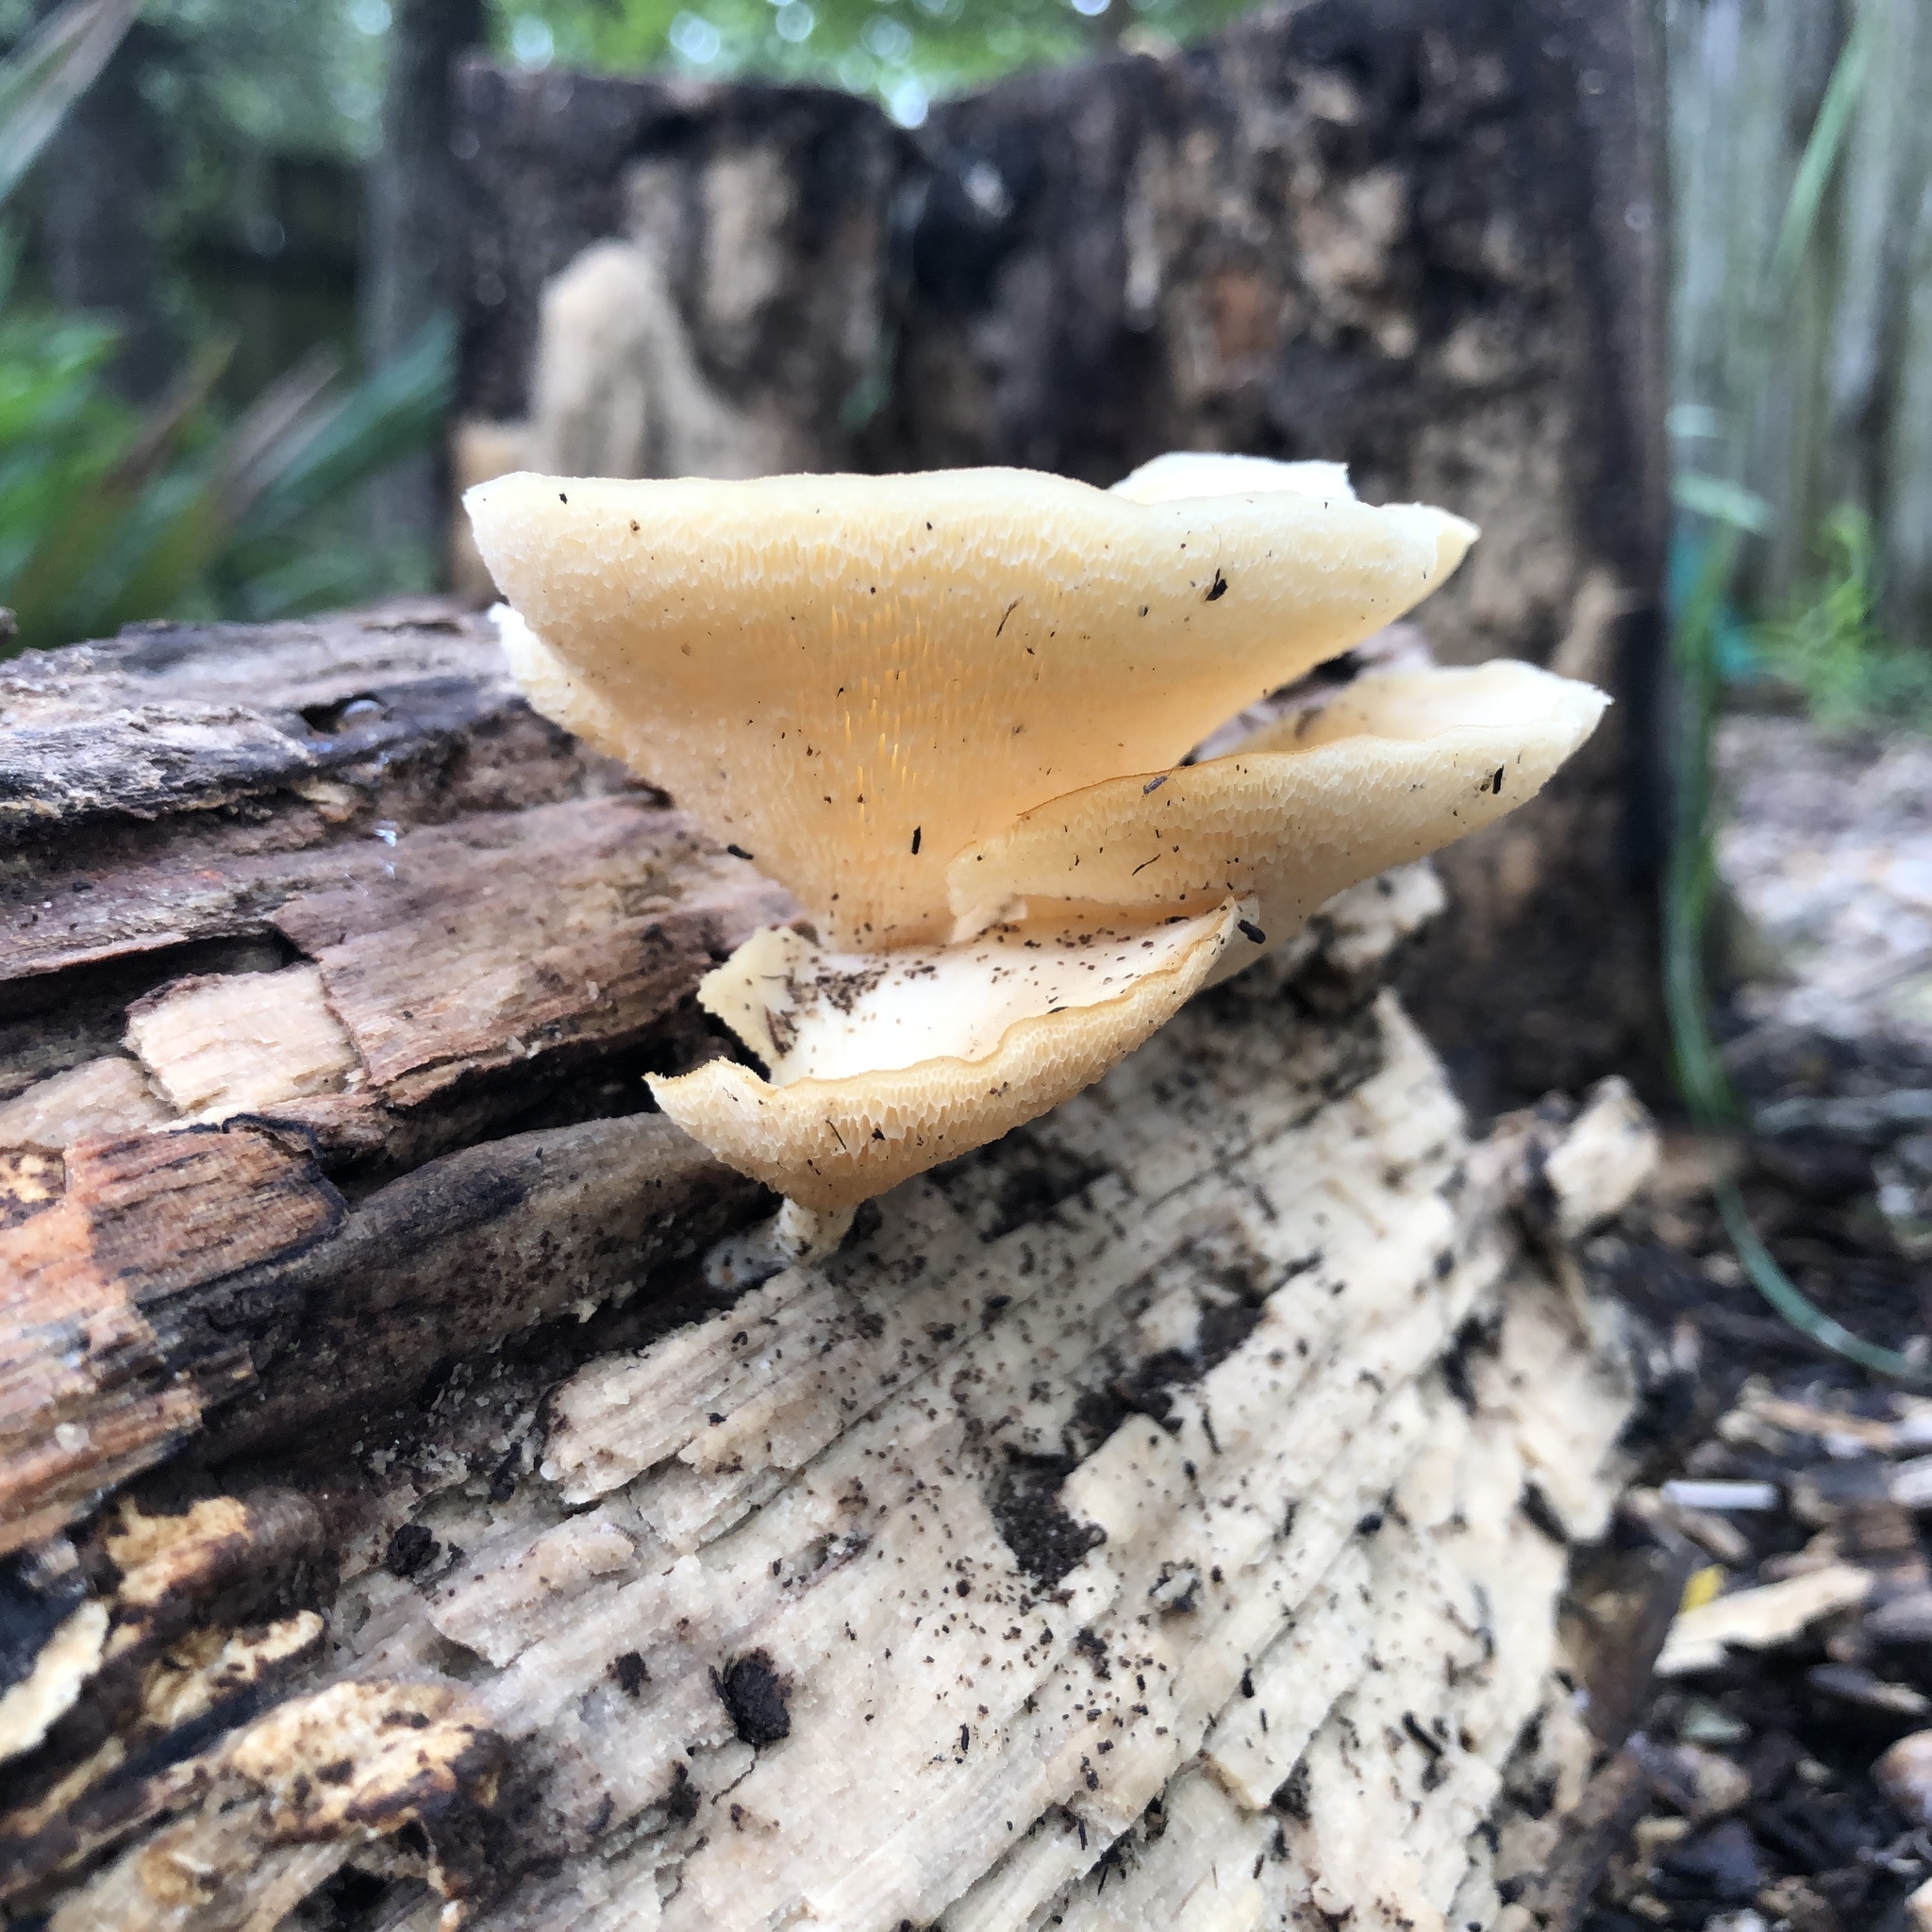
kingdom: Fungi
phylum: Basidiomycota
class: Agaricomycetes
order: Polyporales
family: Polyporaceae
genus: Favolus
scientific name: Favolus tenuiculus
